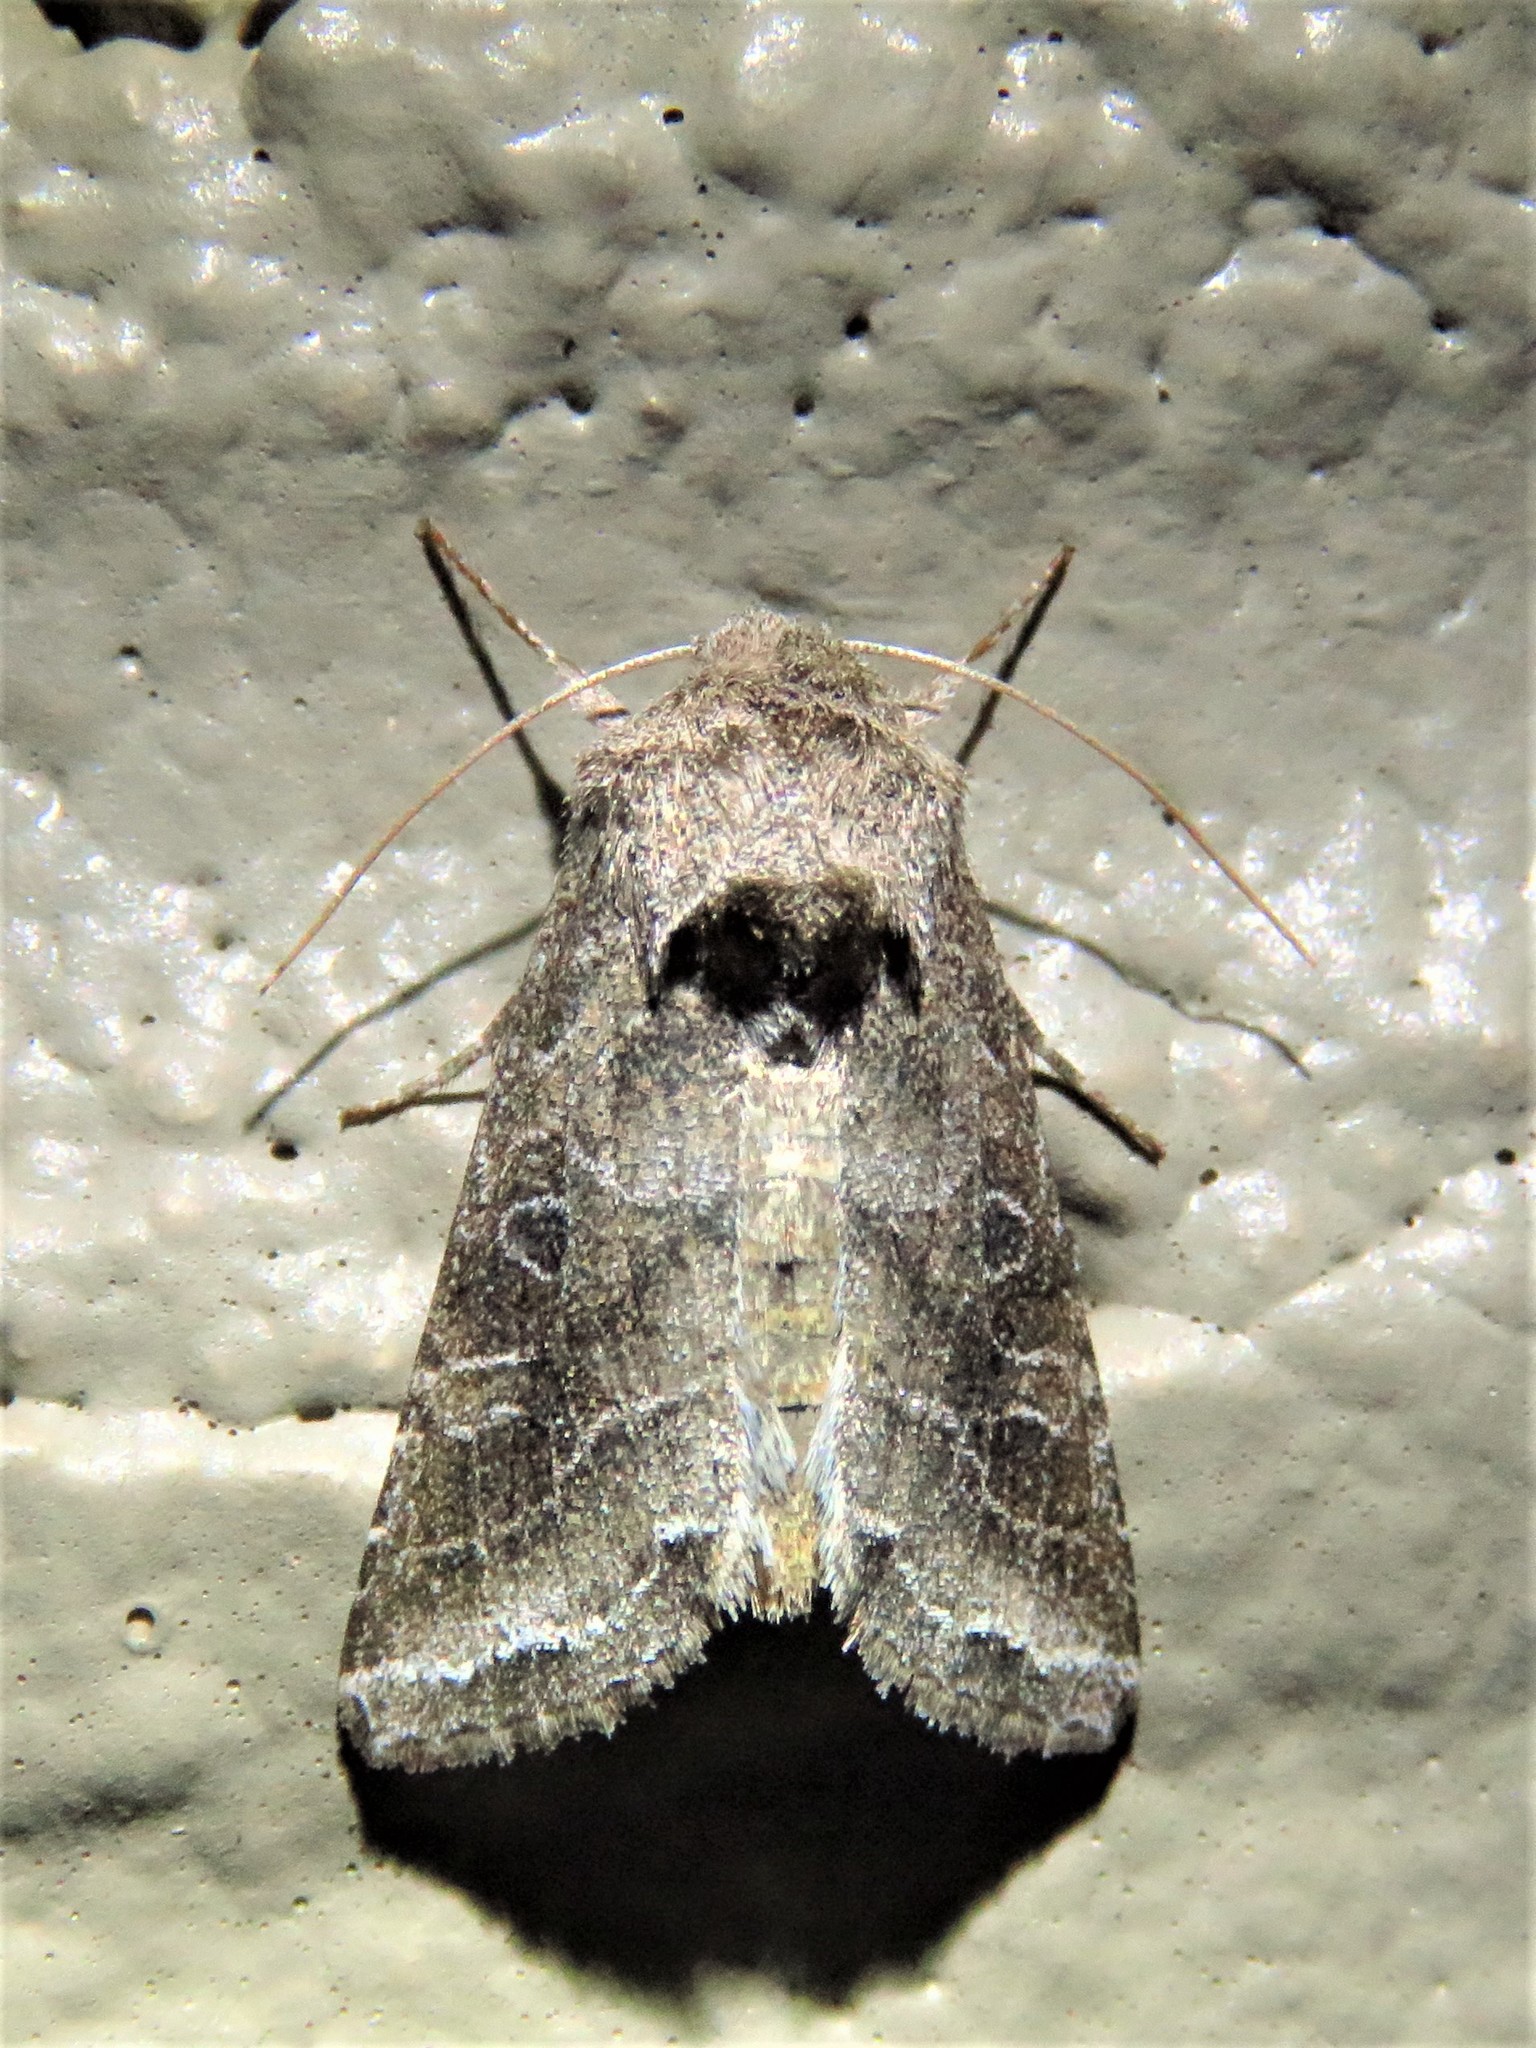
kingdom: Animalia
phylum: Arthropoda
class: Insecta
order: Lepidoptera
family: Noctuidae
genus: Lacinipolia
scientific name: Lacinipolia erecta
